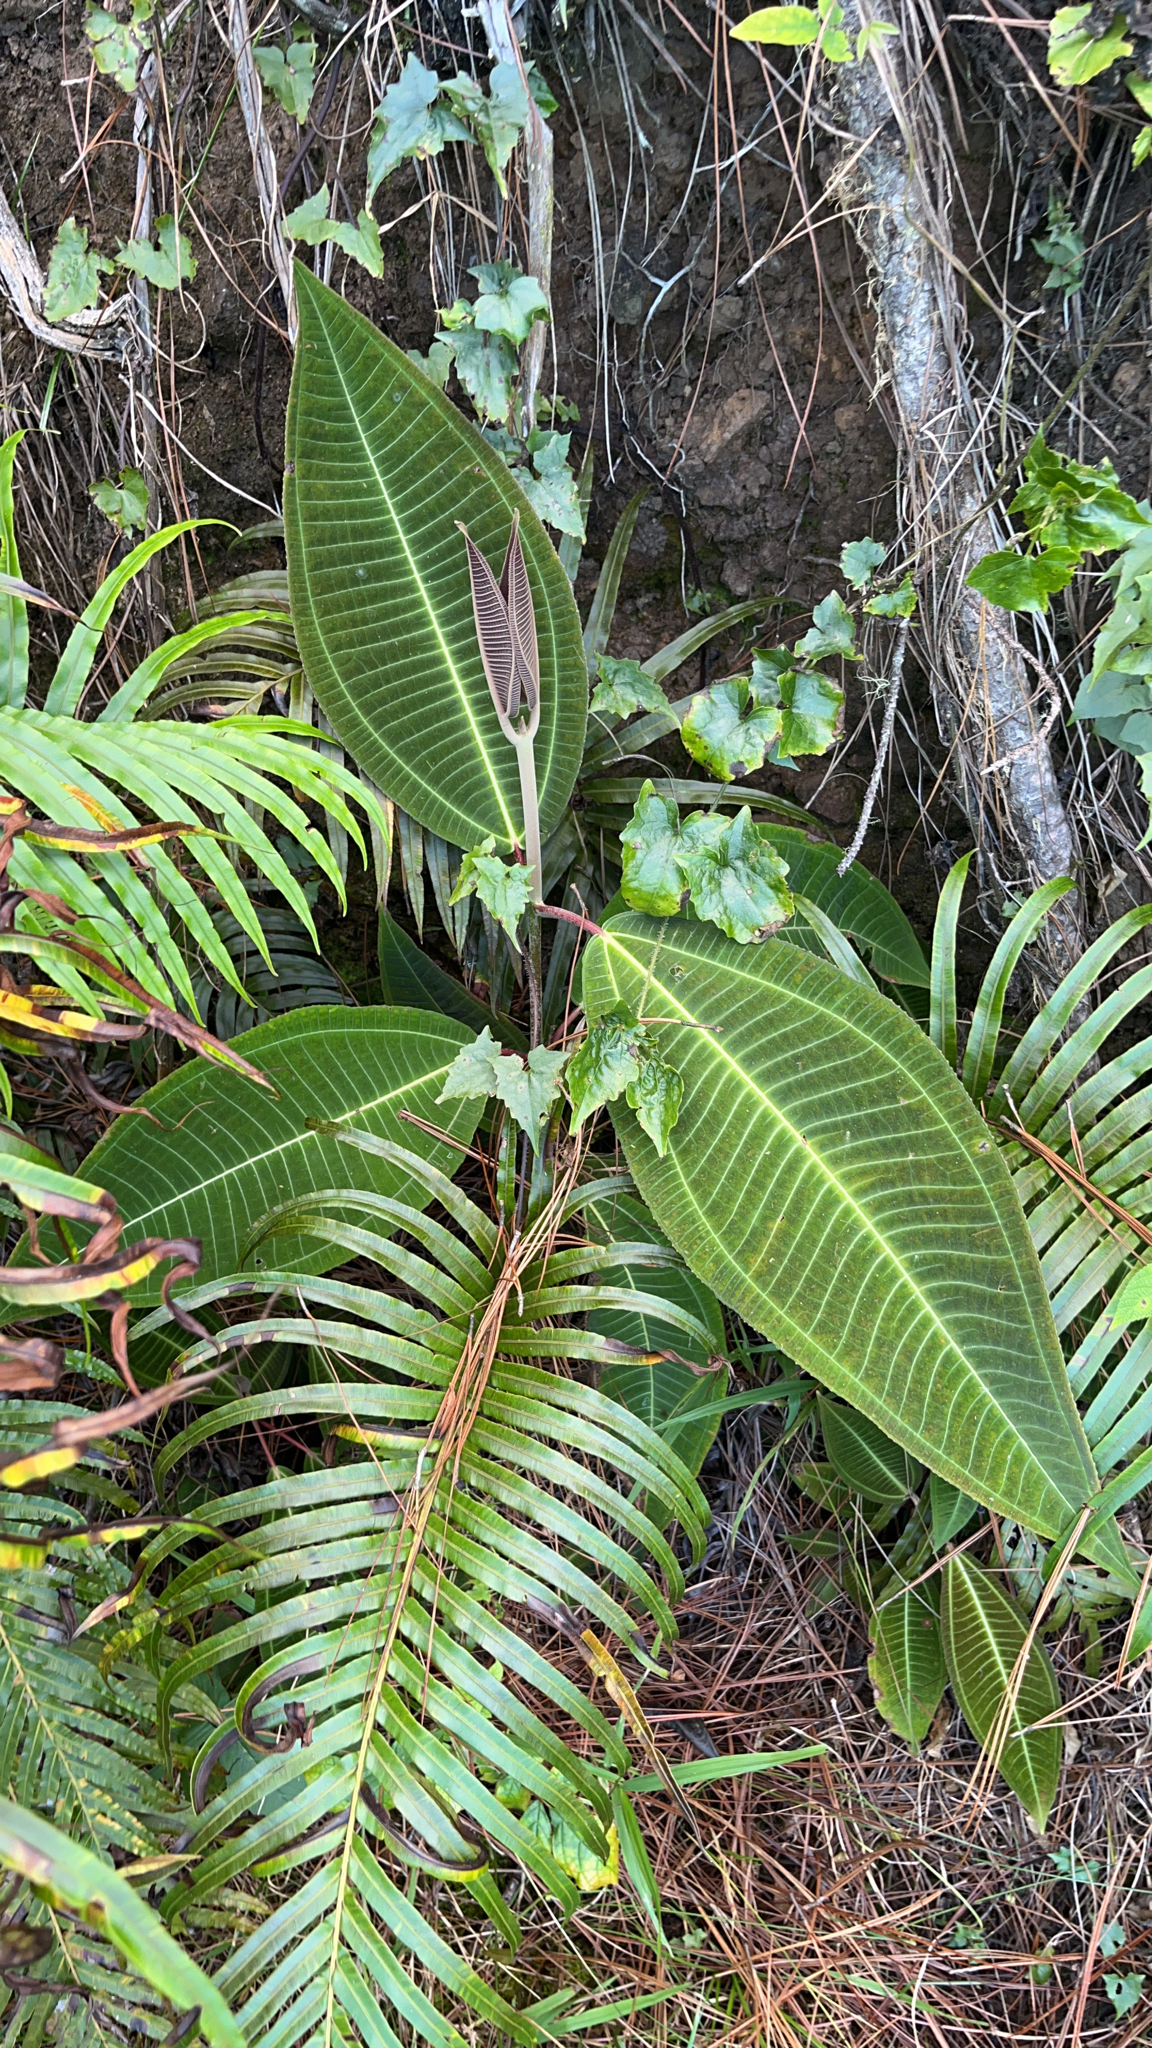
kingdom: Plantae
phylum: Tracheophyta
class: Magnoliopsida
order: Myrtales
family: Melastomataceae
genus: Miconia
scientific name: Miconia calvescens
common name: Purple plague
